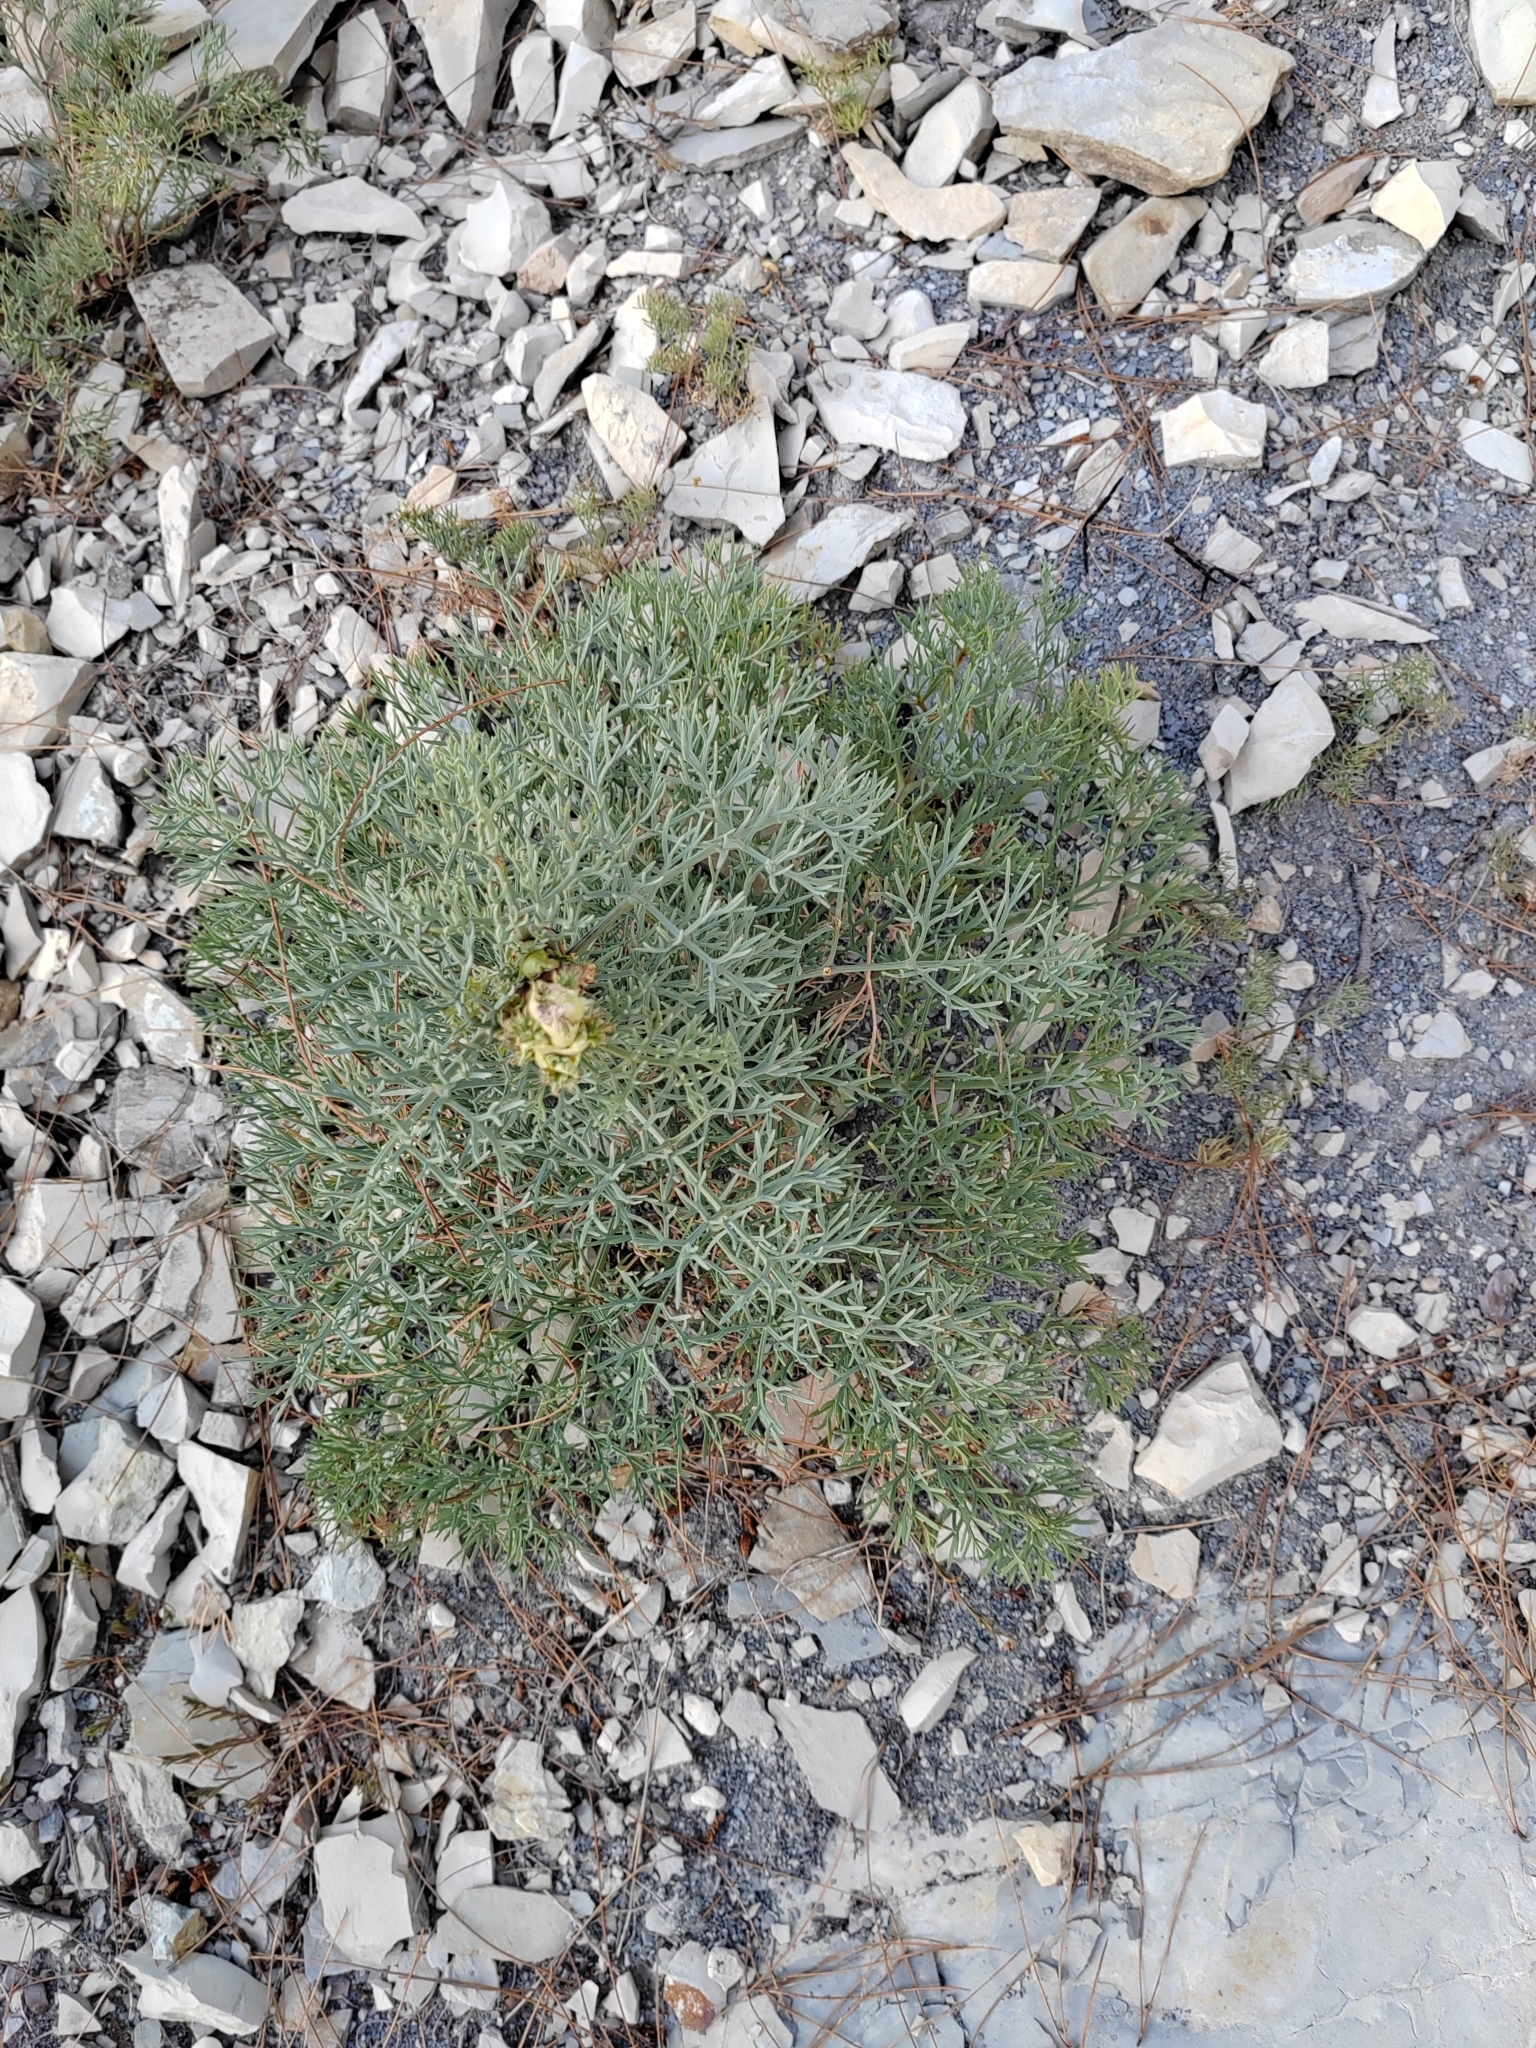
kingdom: Plantae
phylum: Tracheophyta
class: Magnoliopsida
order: Apiales
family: Apiaceae
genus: Seseli
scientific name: Seseli ponticum
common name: Pontic seseli
